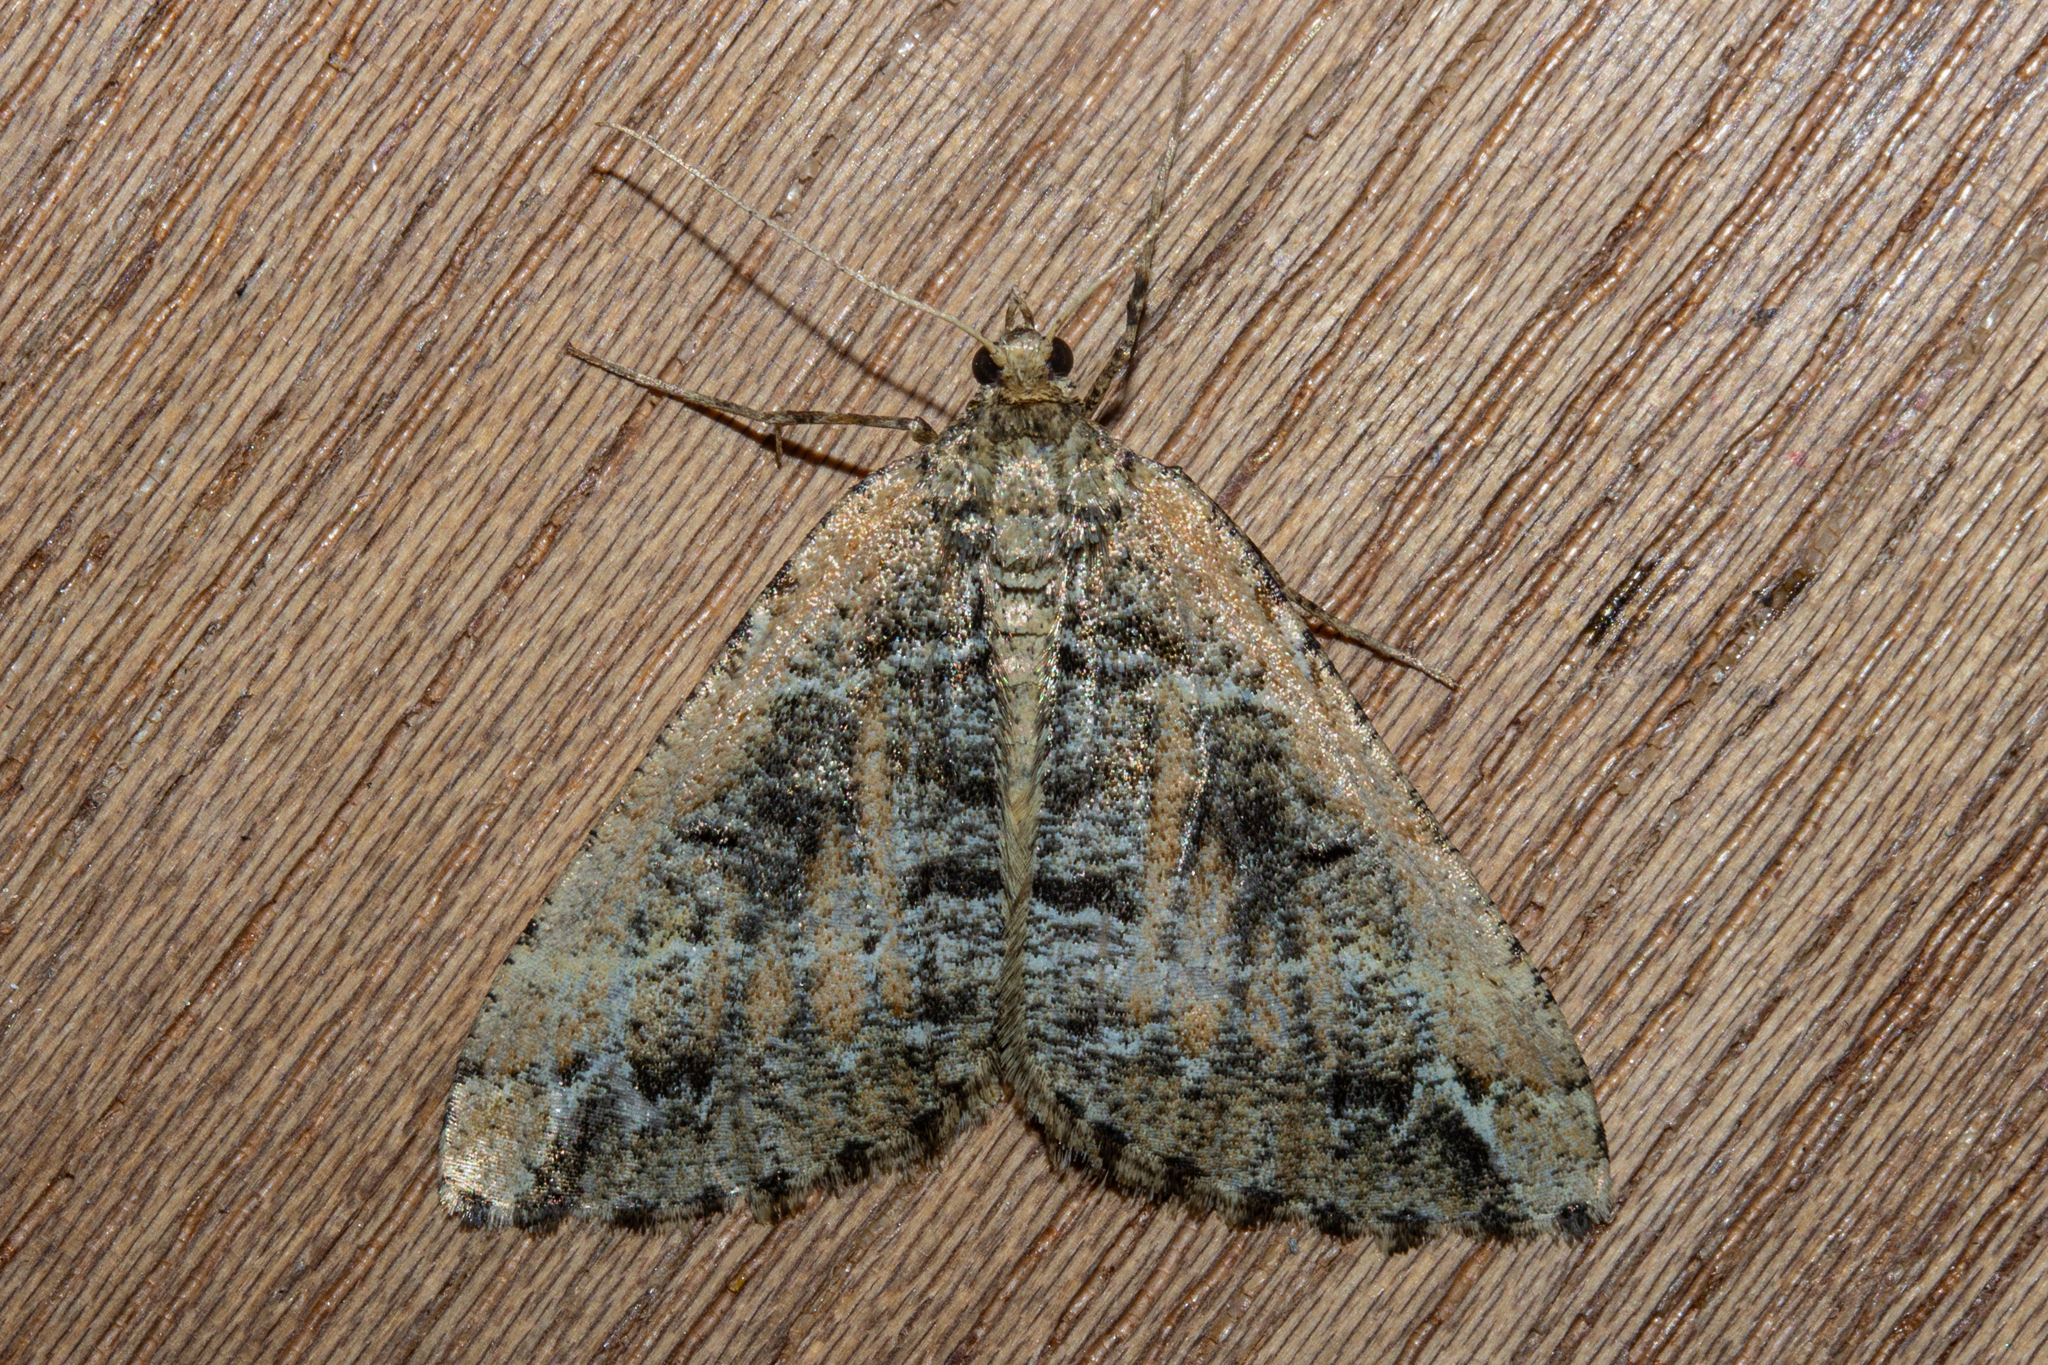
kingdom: Animalia
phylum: Arthropoda
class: Insecta
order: Lepidoptera
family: Geometridae
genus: Pseudocoremia
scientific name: Pseudocoremia melinata
